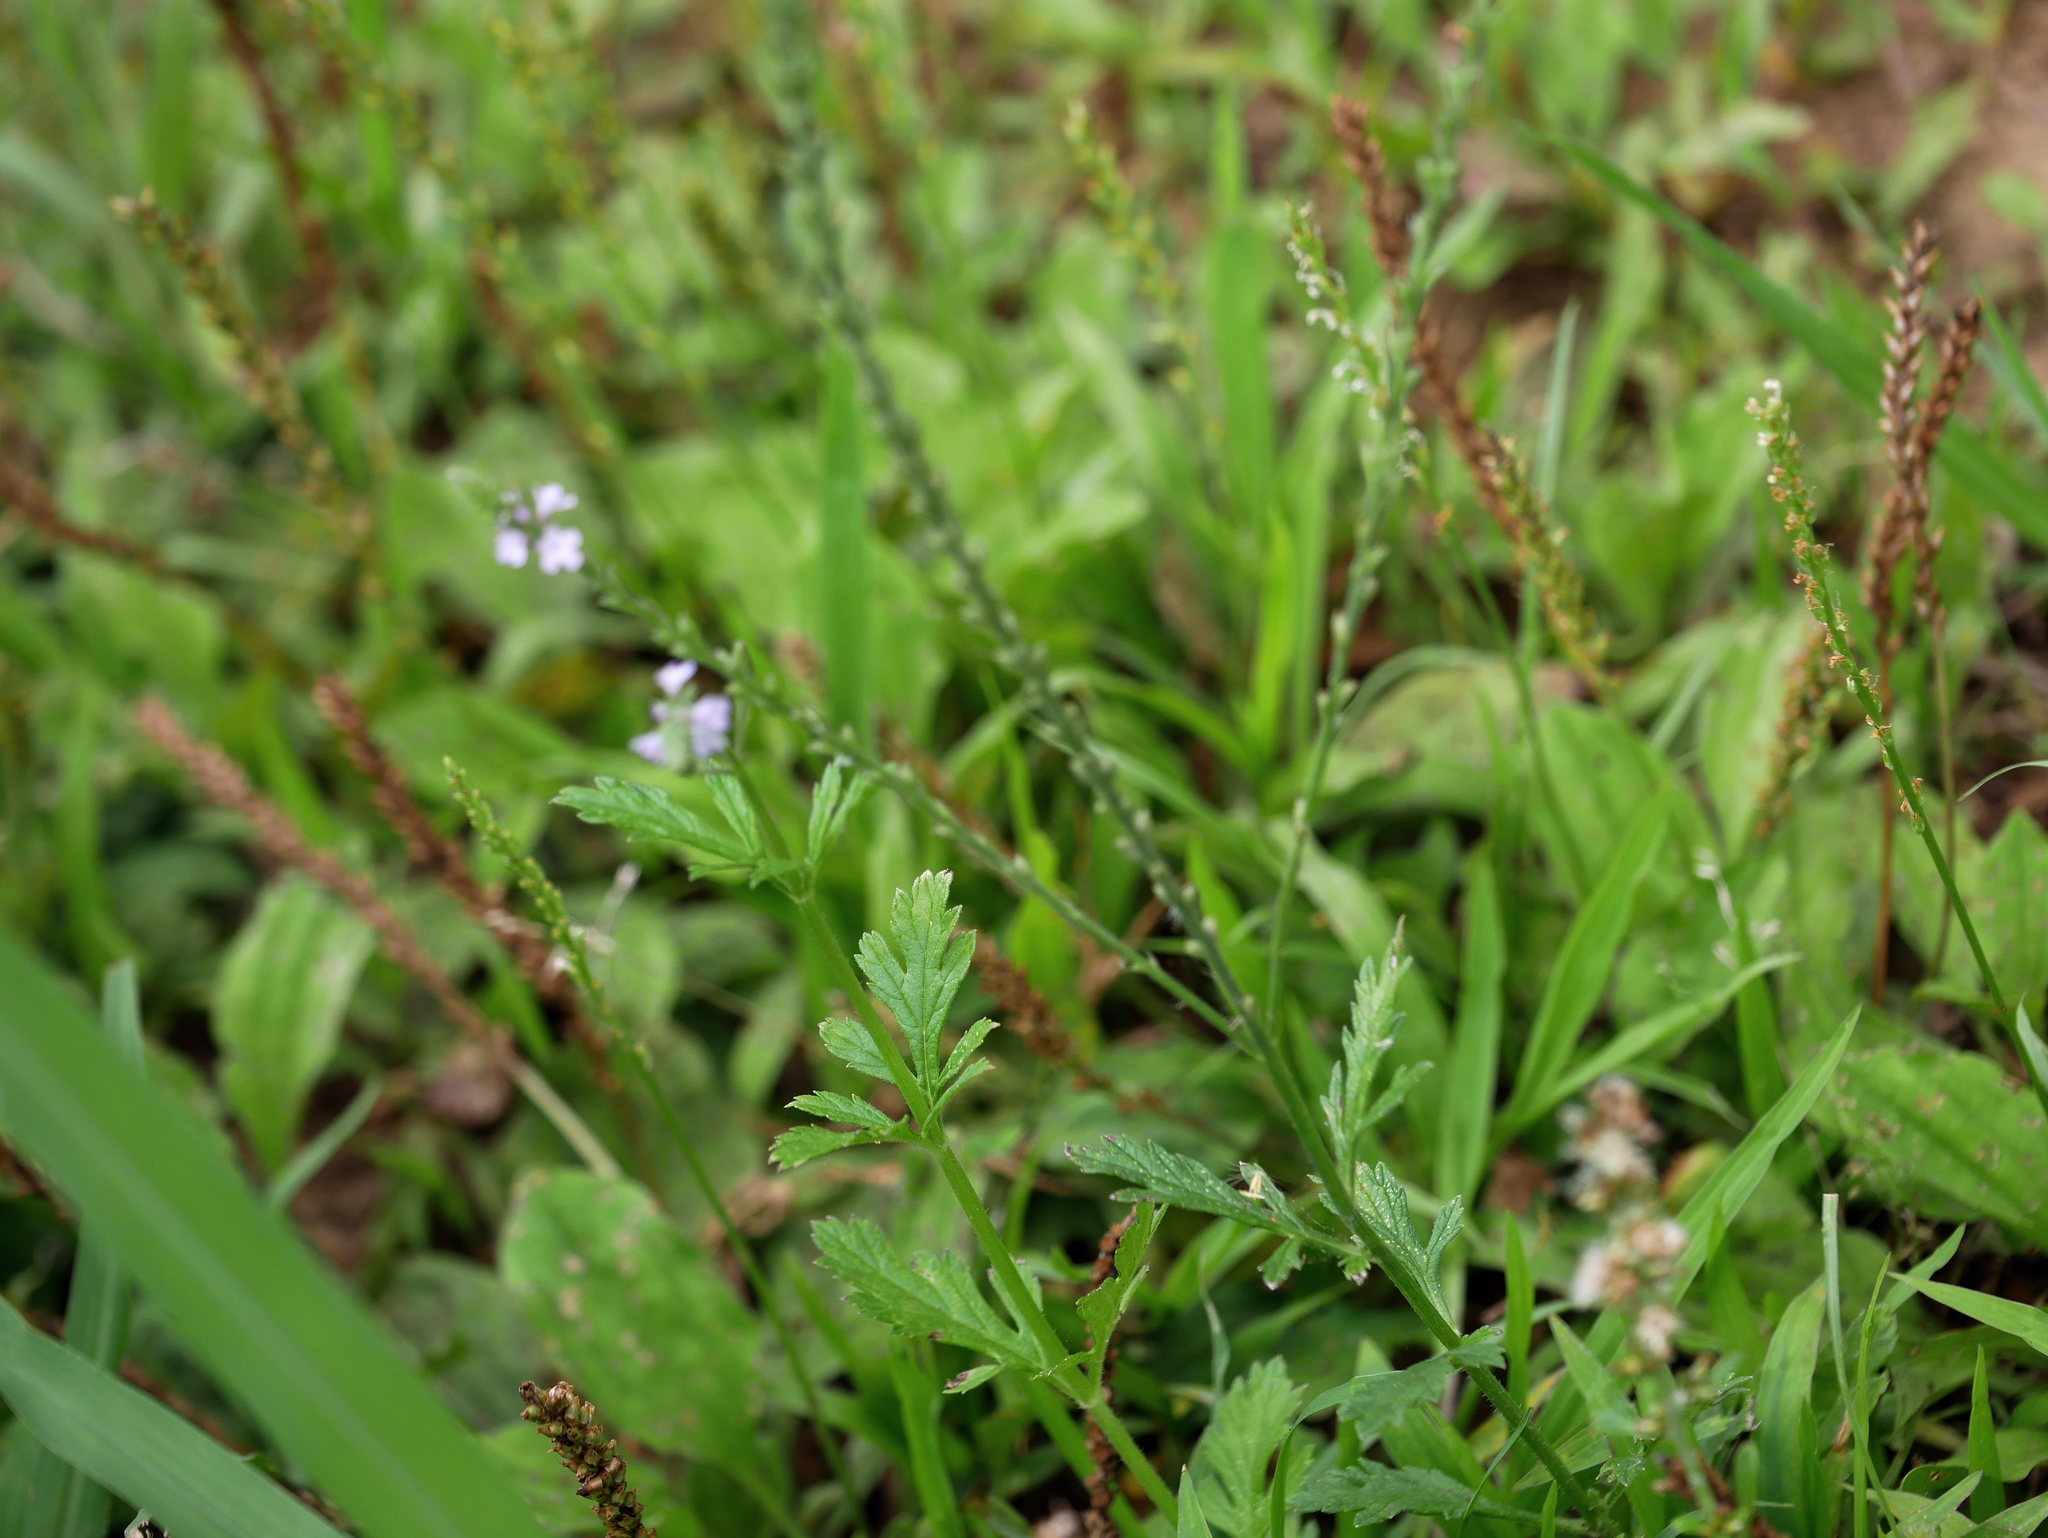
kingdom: Plantae
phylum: Tracheophyta
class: Magnoliopsida
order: Lamiales
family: Verbenaceae
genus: Verbena
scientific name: Verbena officinalis
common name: Vervain
